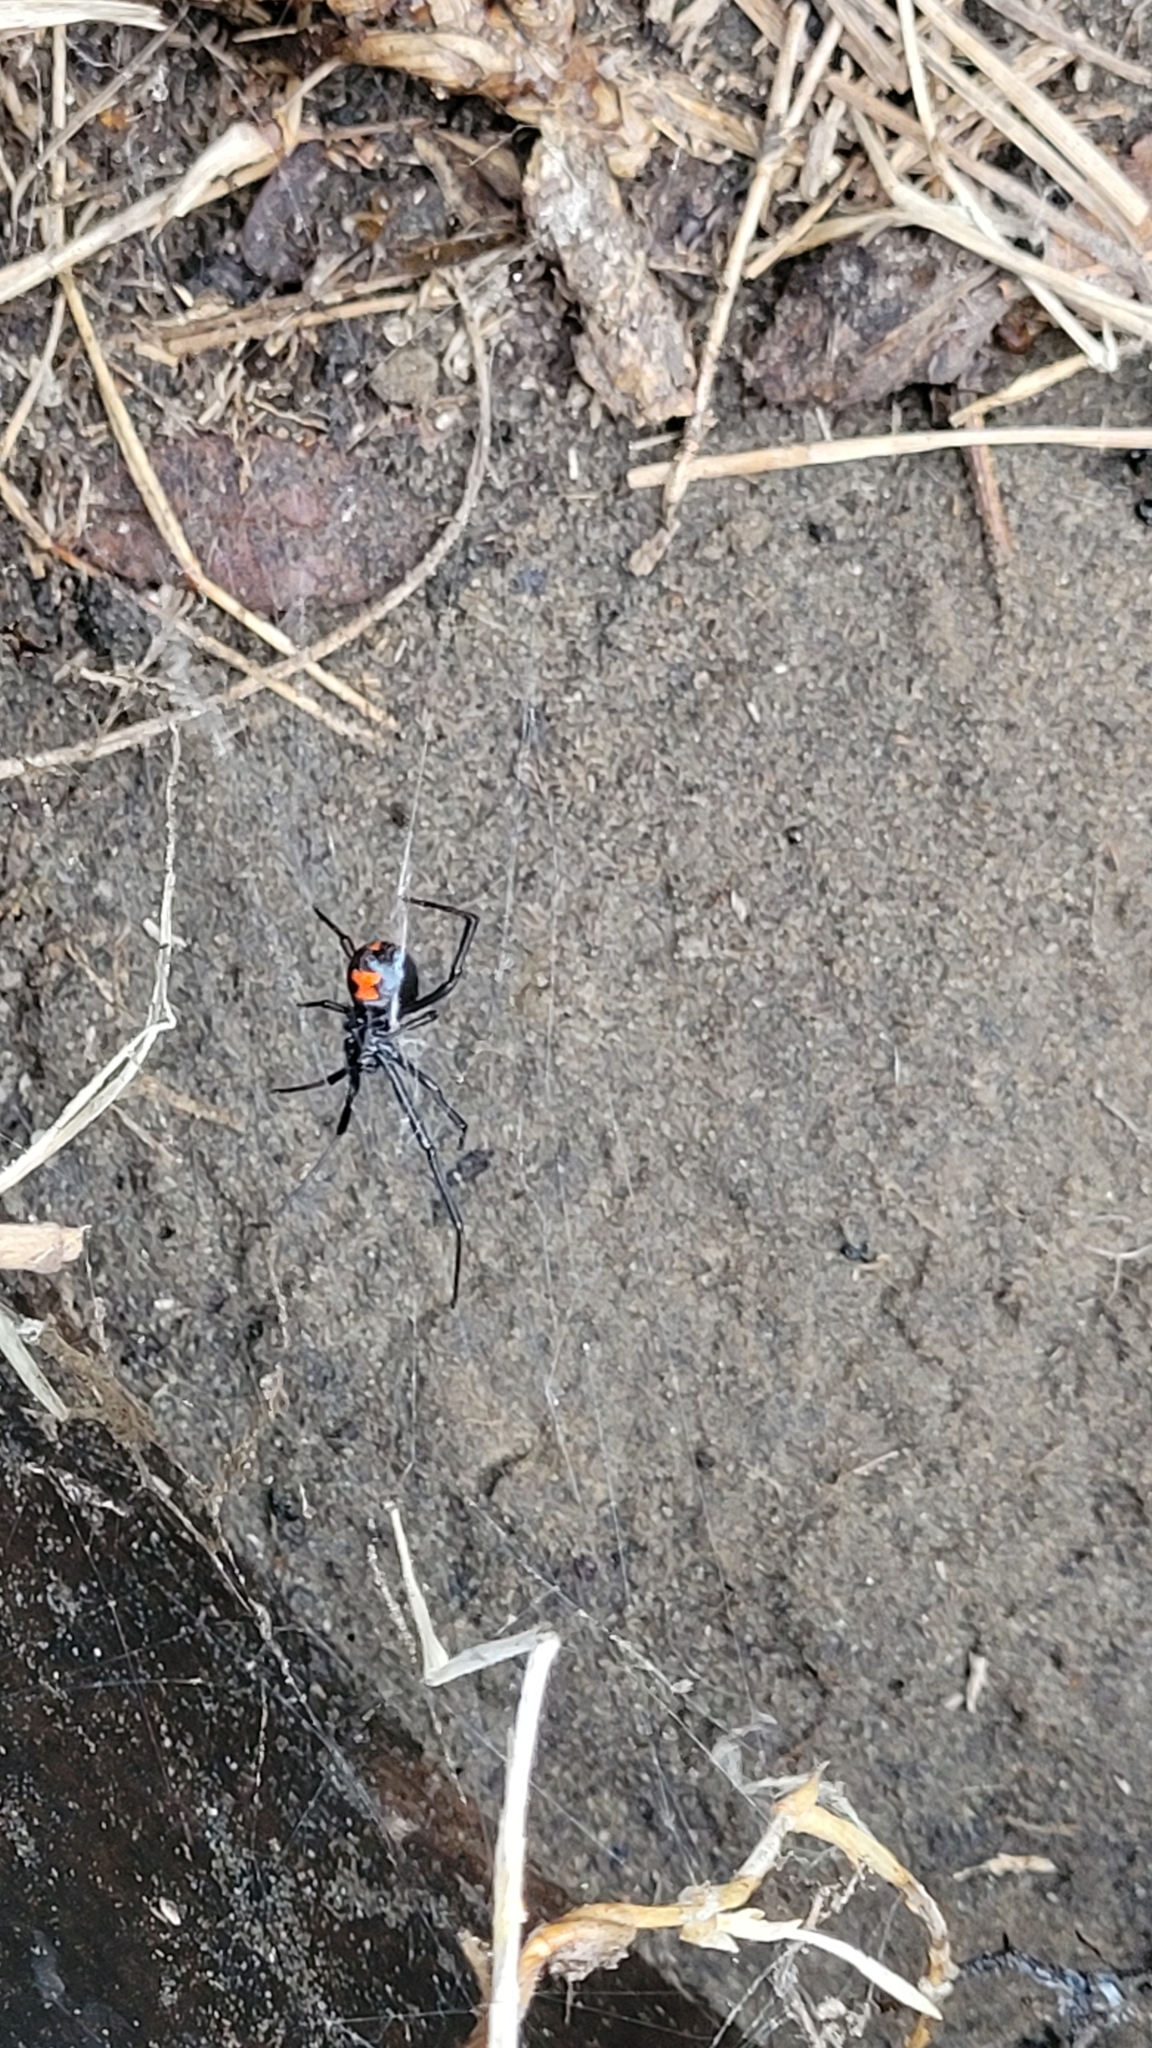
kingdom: Animalia
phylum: Arthropoda
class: Arachnida
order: Araneae
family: Theridiidae
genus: Latrodectus
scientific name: Latrodectus mactans
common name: Cobweb spiders
